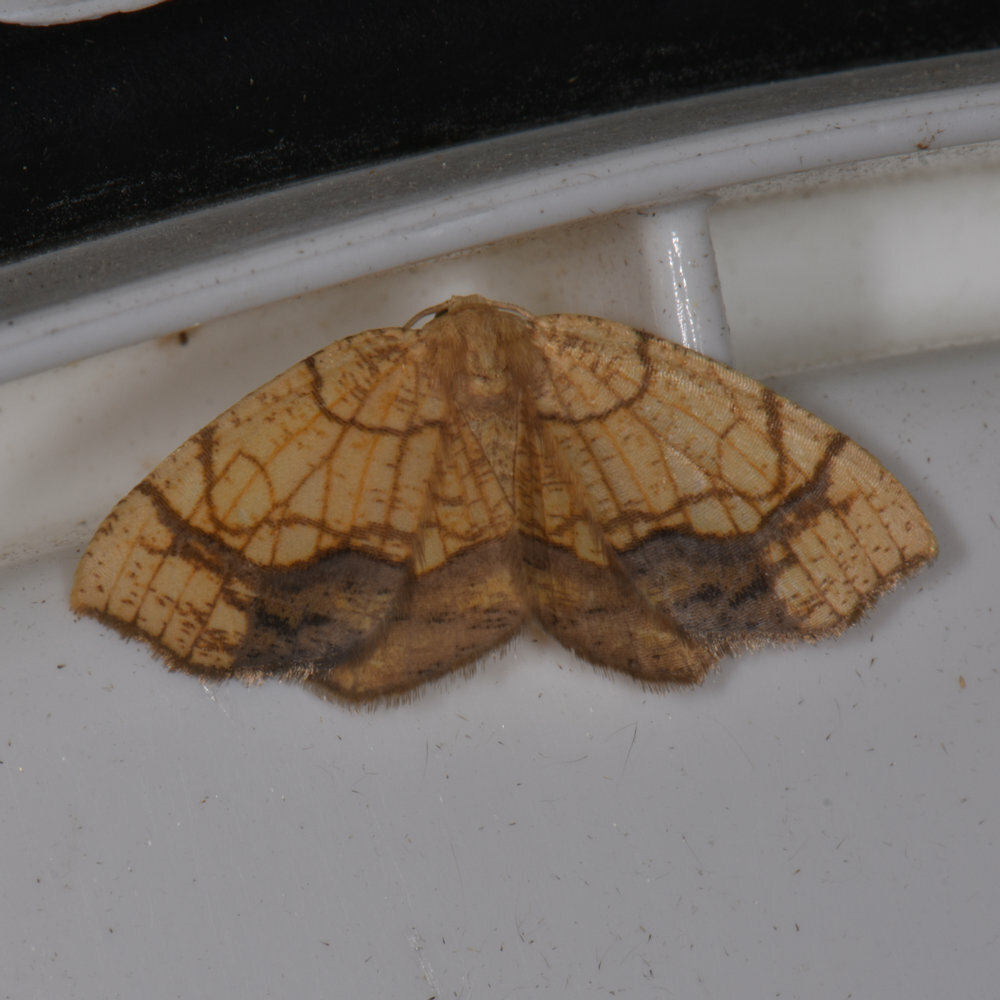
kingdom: Animalia
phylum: Arthropoda
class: Insecta
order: Lepidoptera
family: Geometridae
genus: Nematocampa
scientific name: Nematocampa resistaria
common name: Horned spanworm moth
